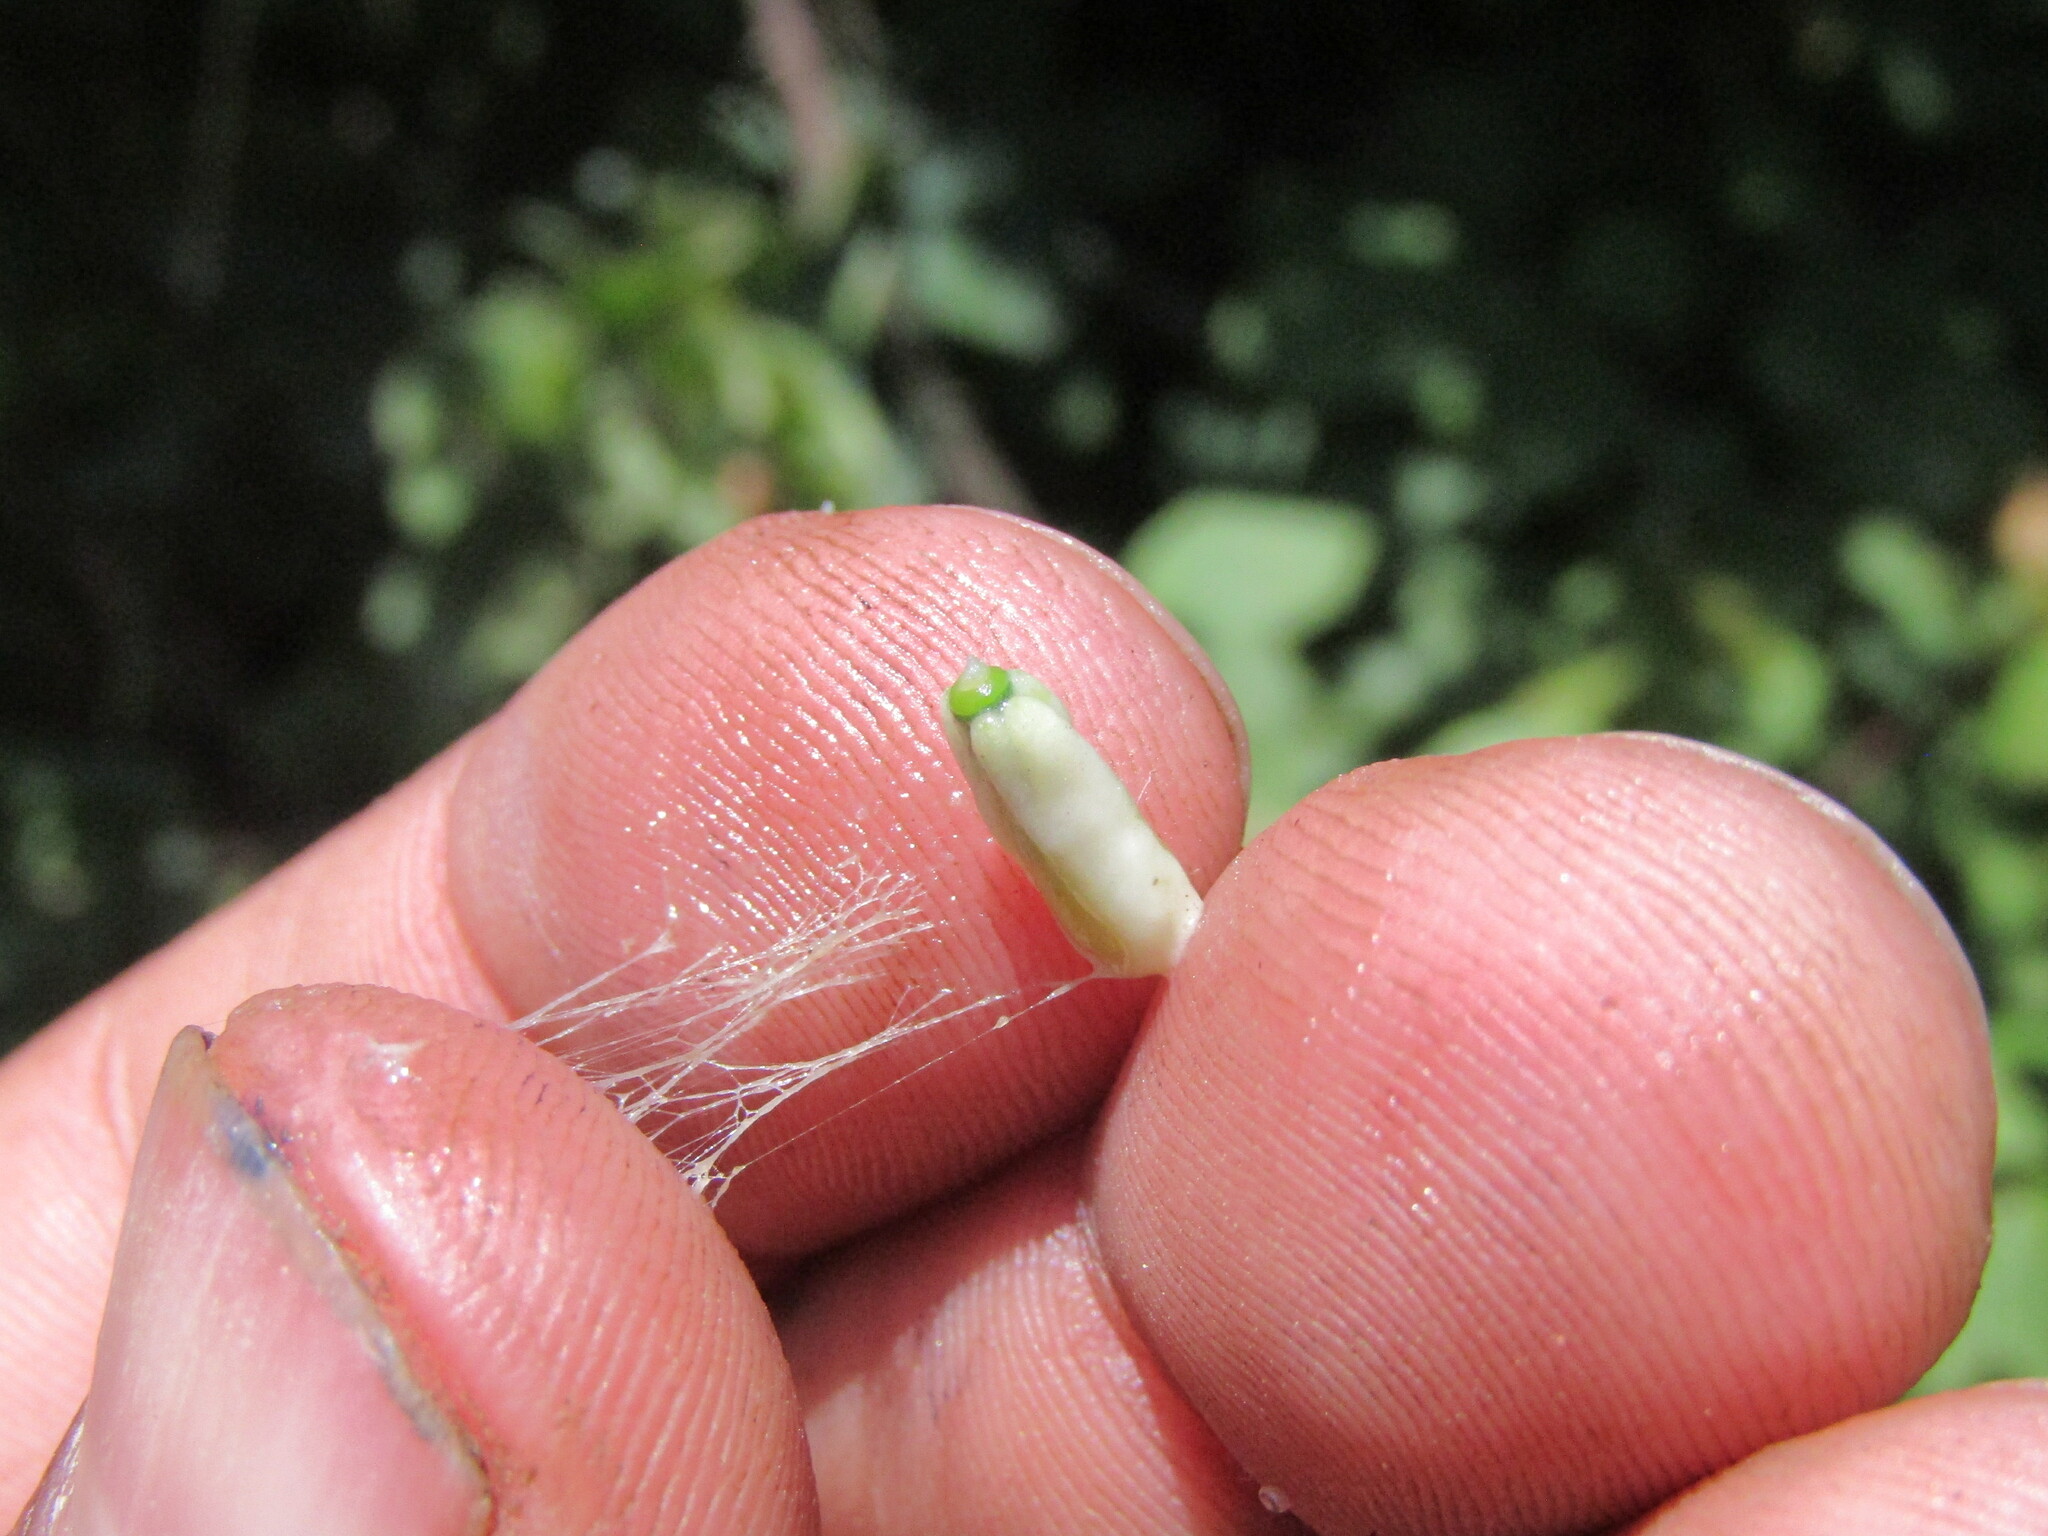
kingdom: Plantae
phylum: Tracheophyta
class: Magnoliopsida
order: Santalales
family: Loranthaceae
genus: Tristerix
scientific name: Tristerix corymbosus
